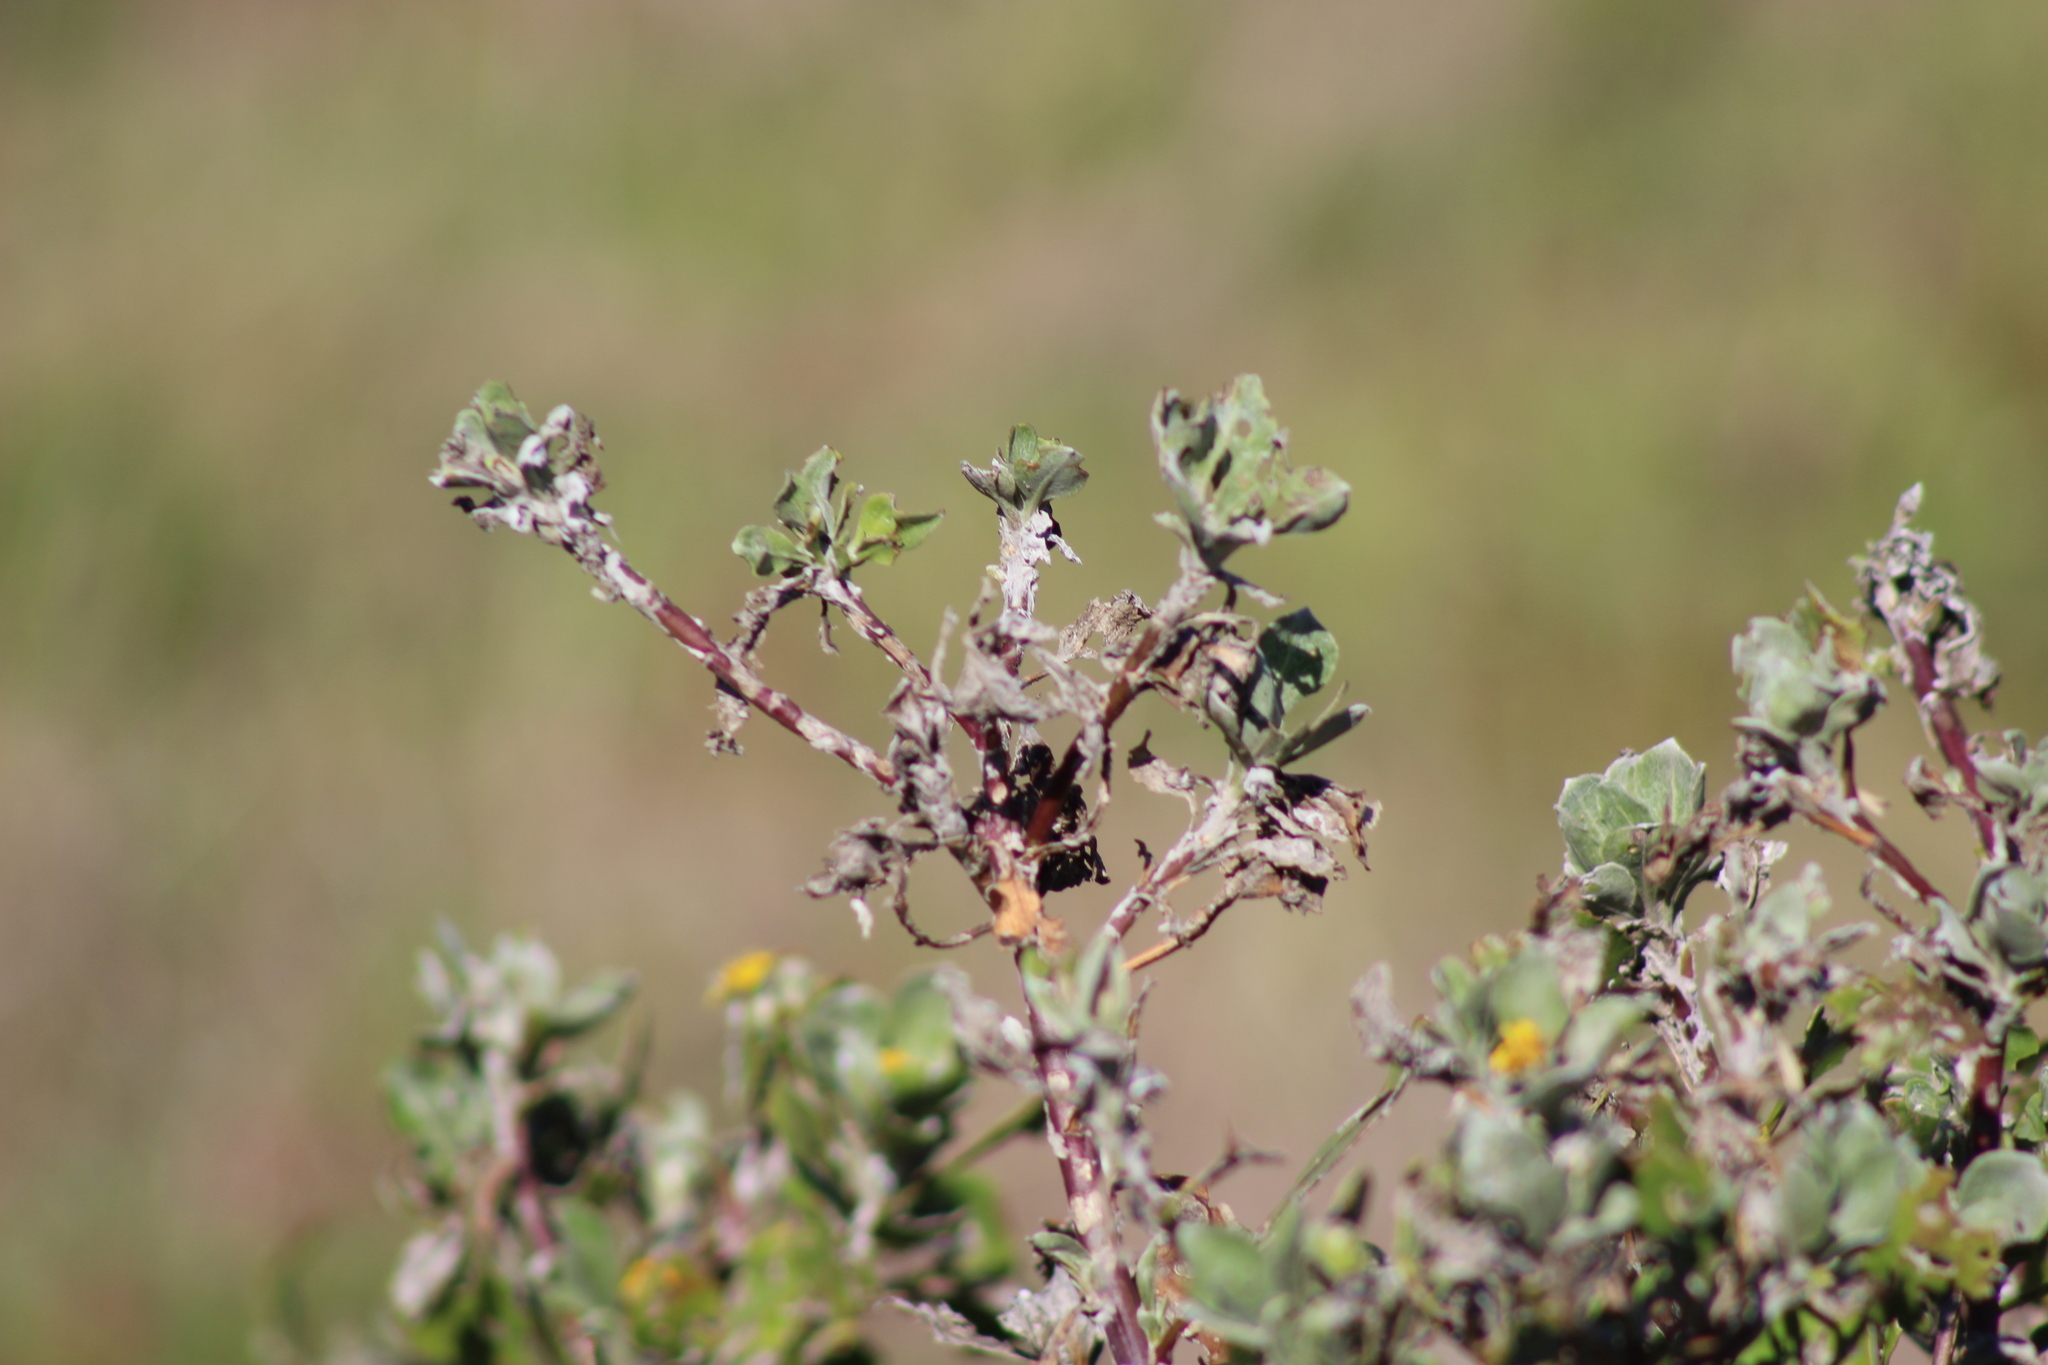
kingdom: Plantae
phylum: Tracheophyta
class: Magnoliopsida
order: Asterales
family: Asteraceae
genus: Osteospermum
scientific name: Osteospermum moniliferum
